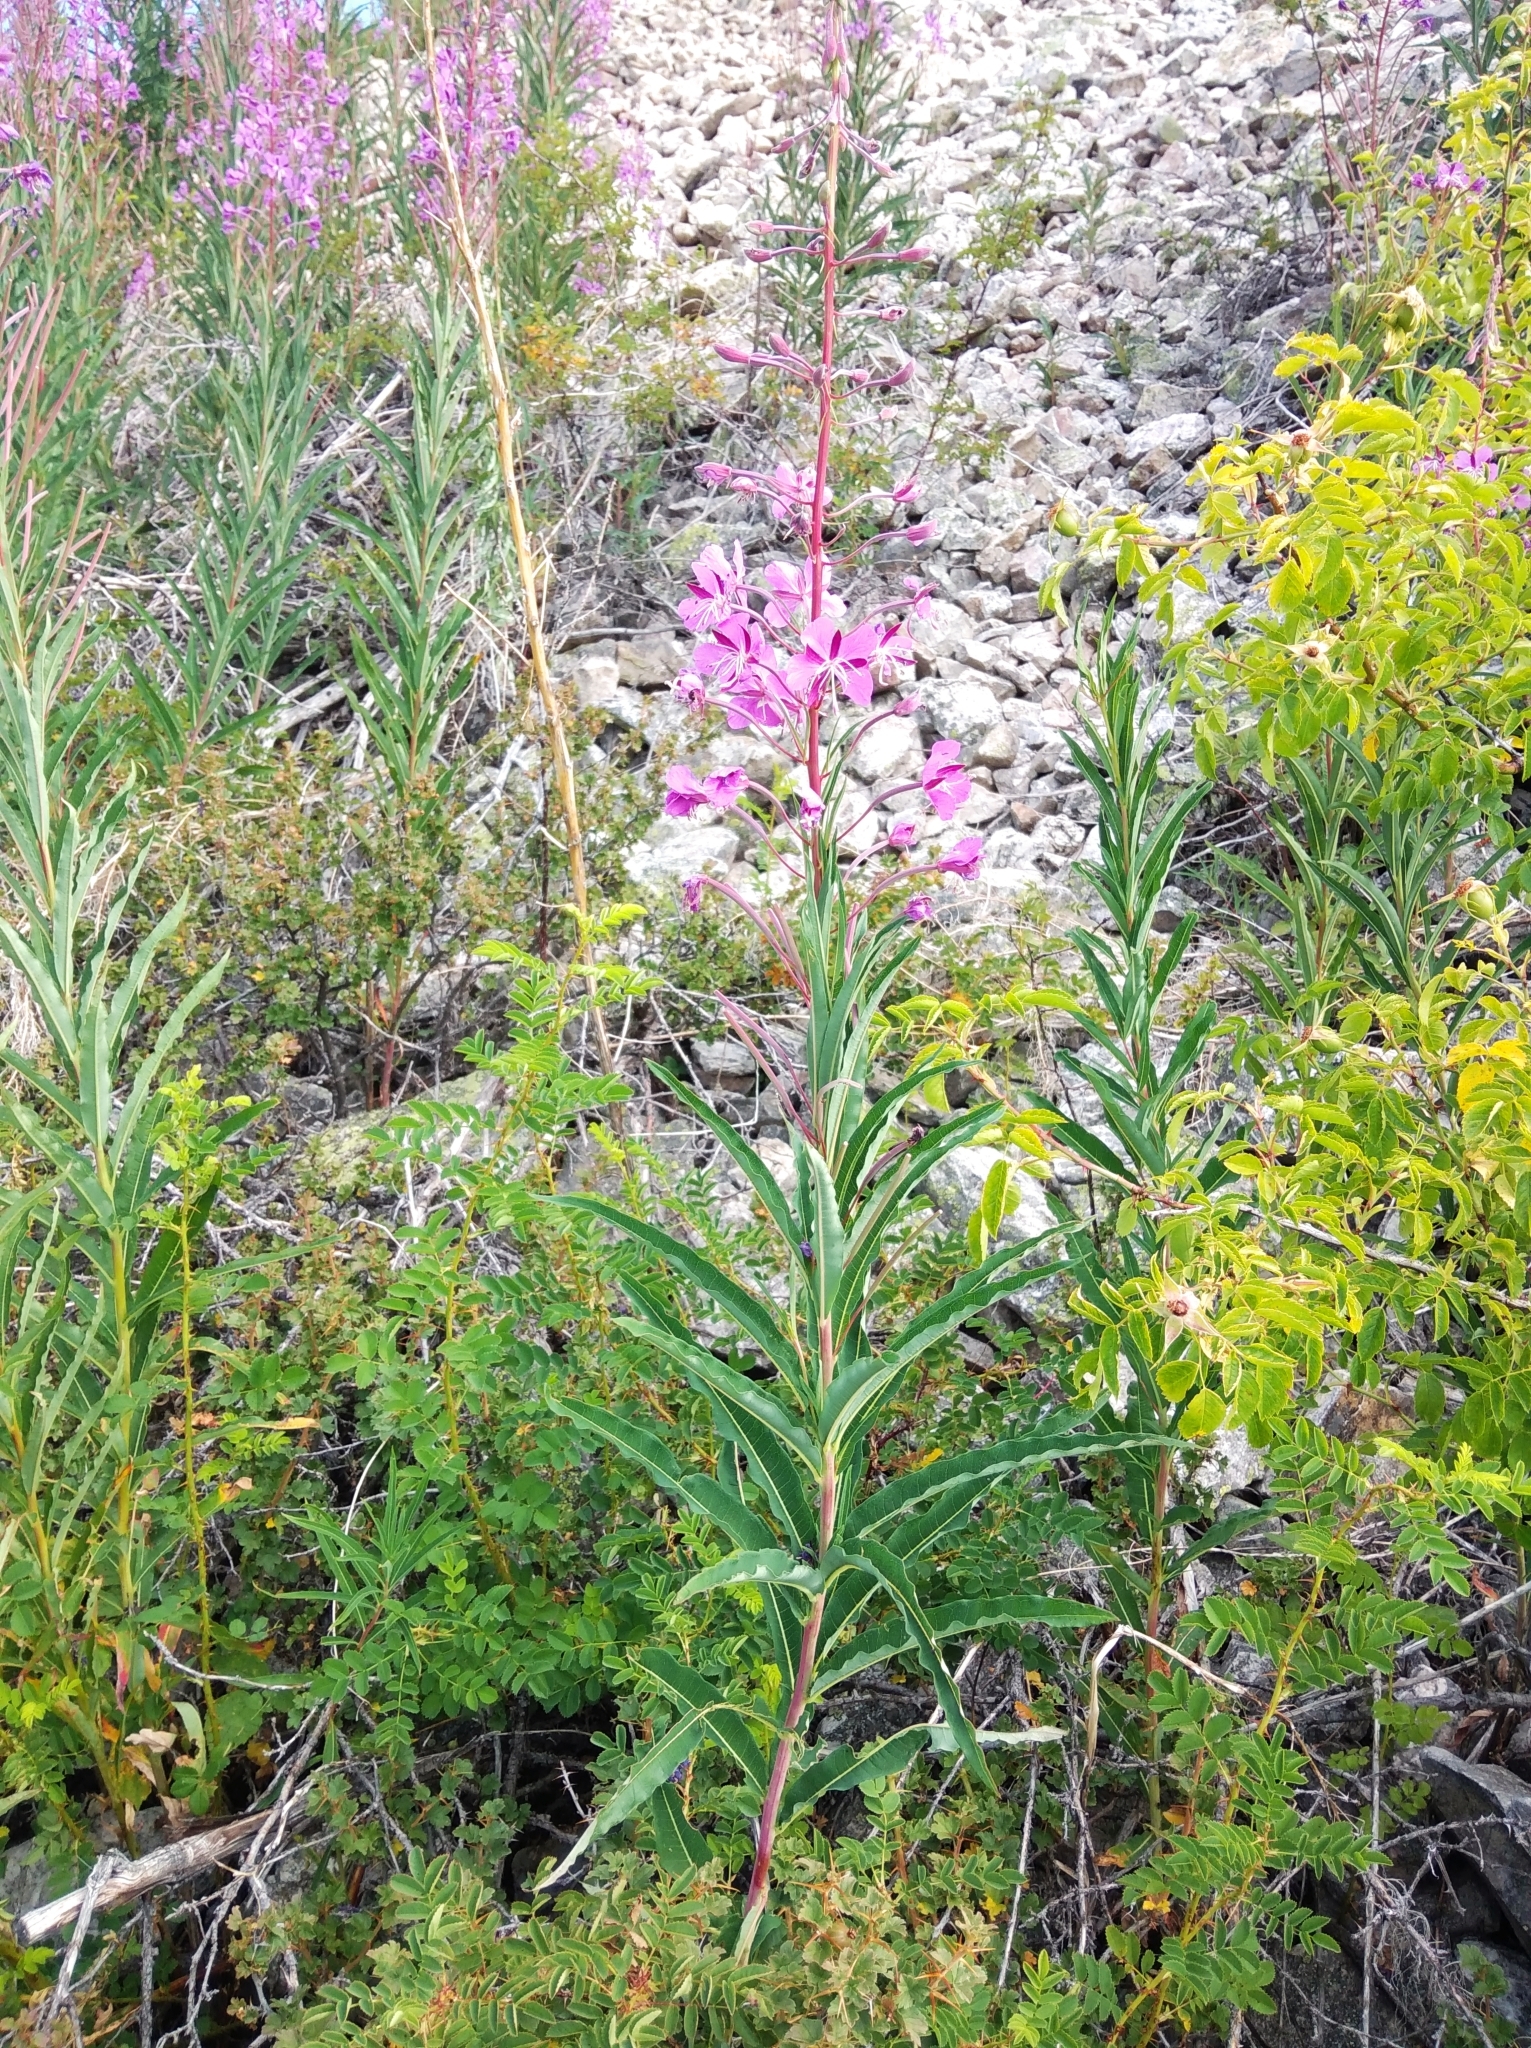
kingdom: Plantae
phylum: Tracheophyta
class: Magnoliopsida
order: Myrtales
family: Onagraceae
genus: Chamaenerion
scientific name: Chamaenerion angustifolium
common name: Fireweed
